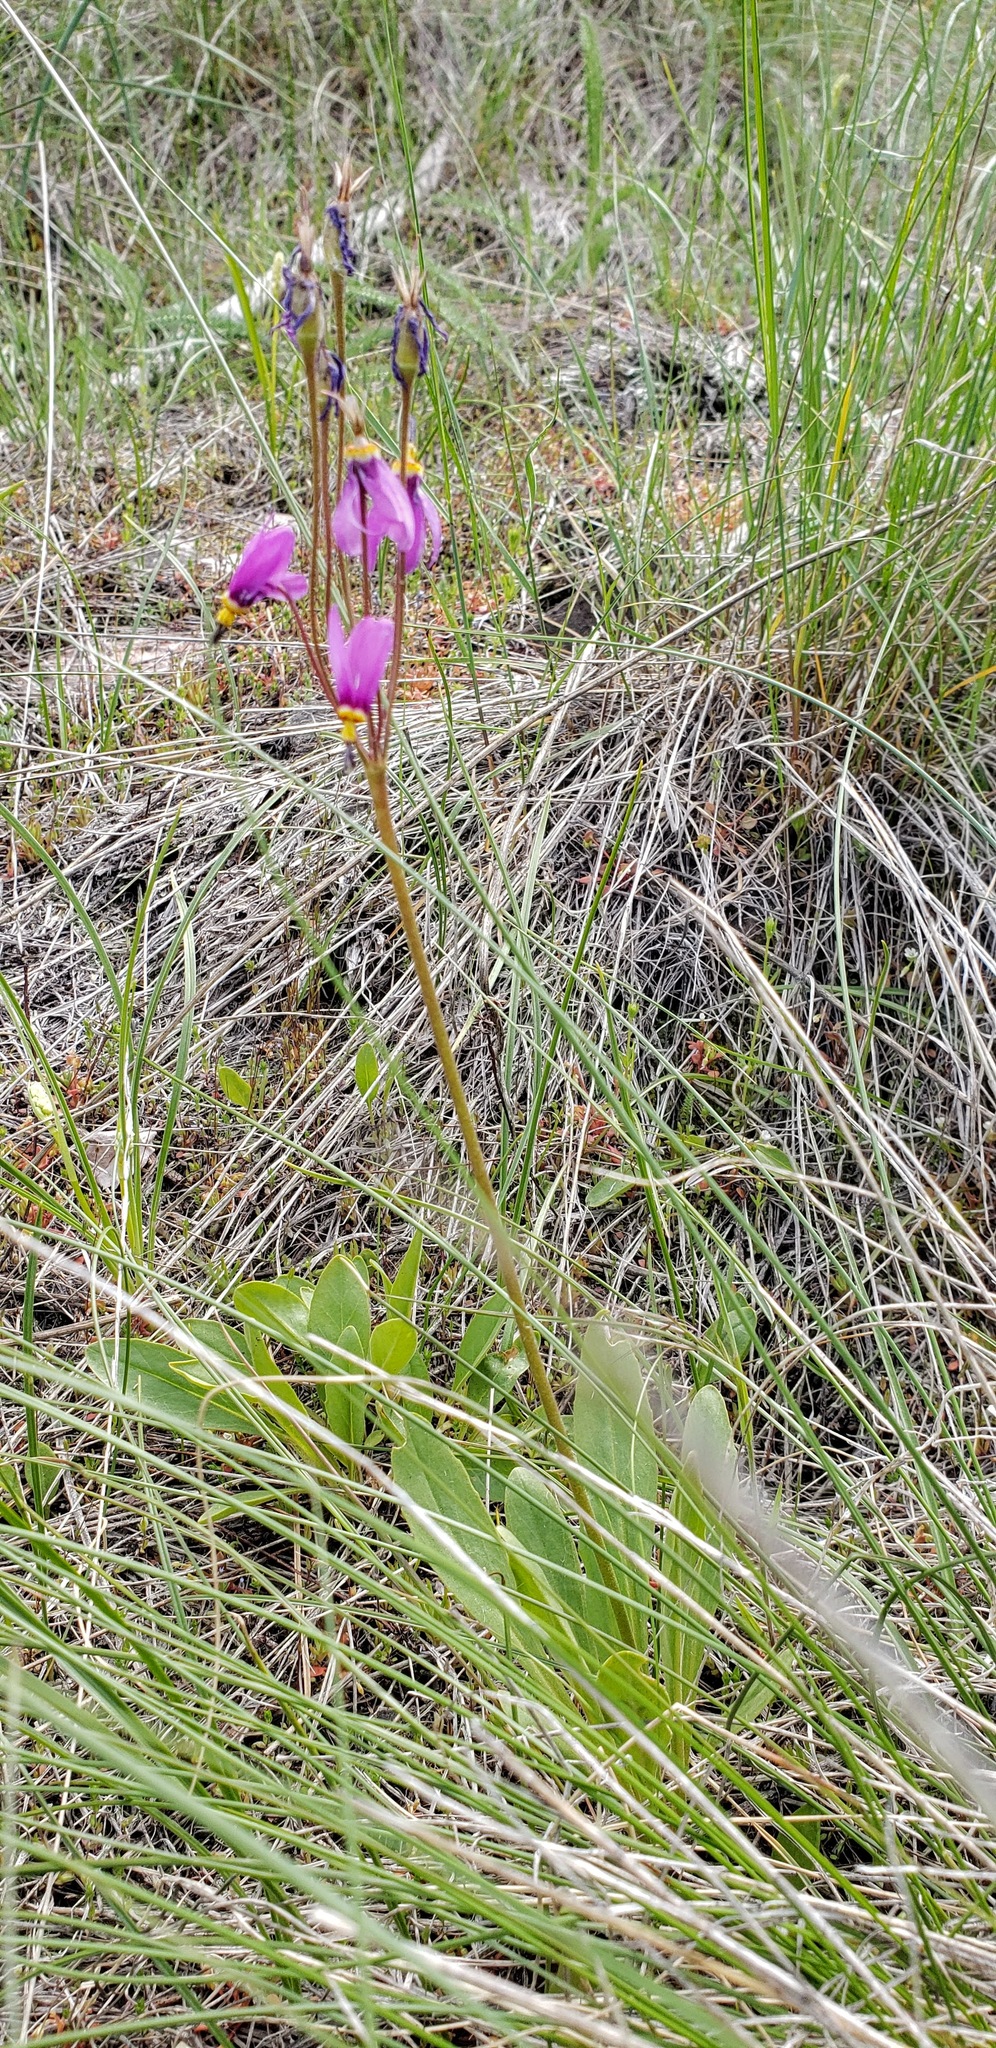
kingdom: Plantae
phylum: Tracheophyta
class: Magnoliopsida
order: Ericales
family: Primulaceae
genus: Dodecatheon
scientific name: Dodecatheon pulchellum
